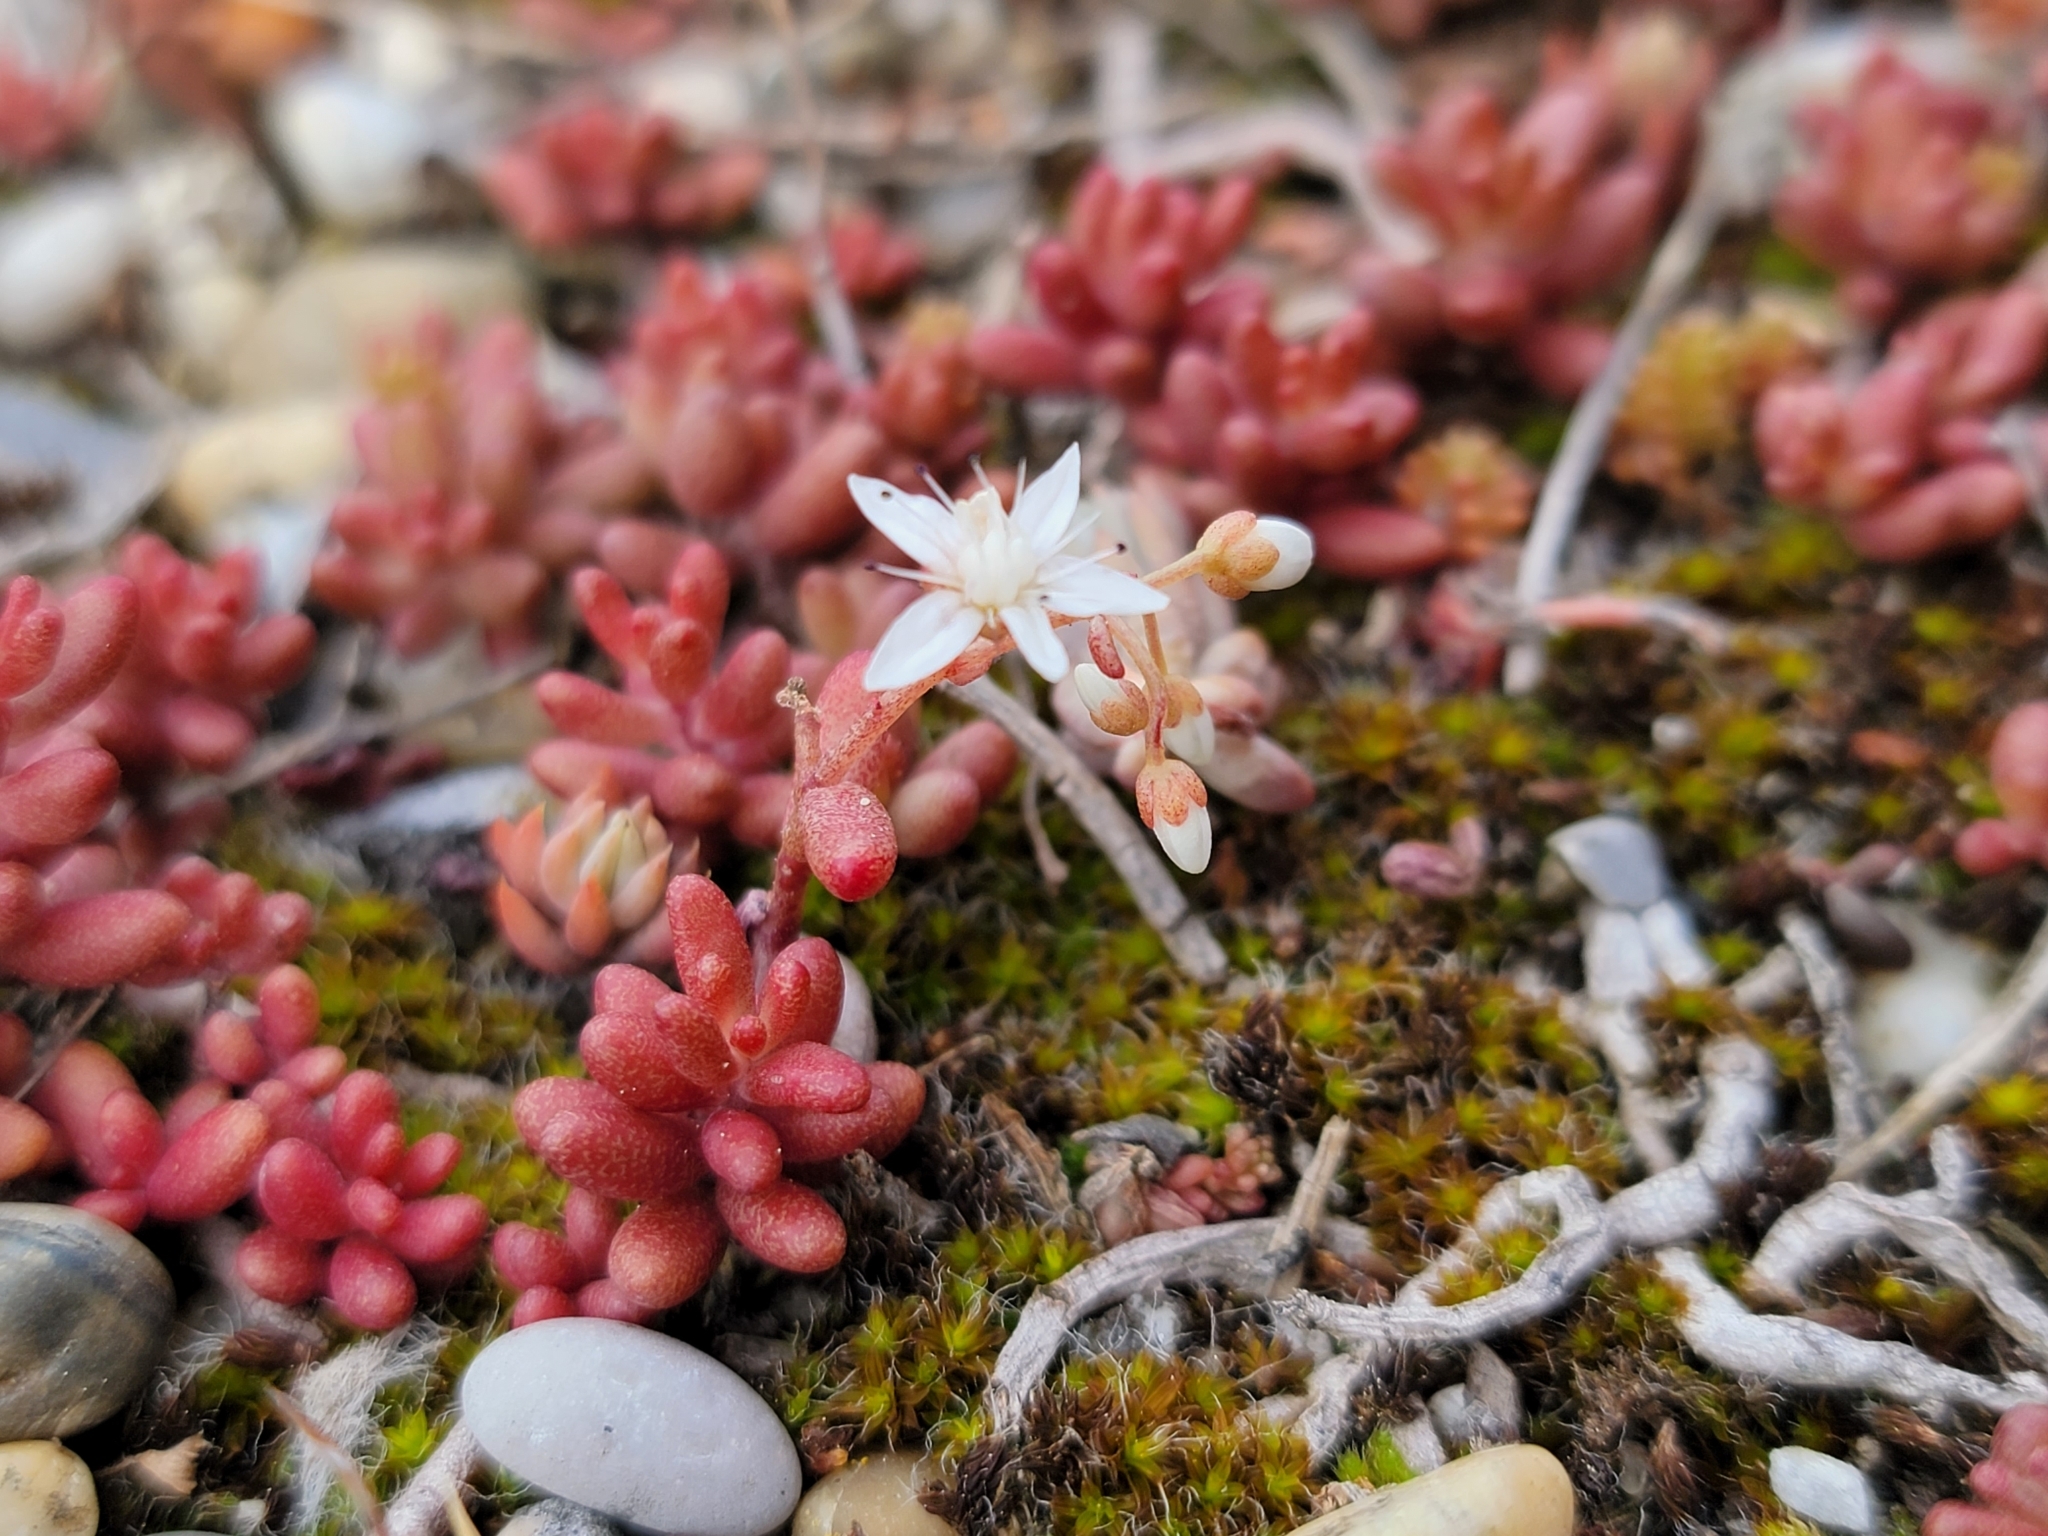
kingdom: Plantae
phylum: Tracheophyta
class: Magnoliopsida
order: Saxifragales
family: Crassulaceae
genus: Sedum
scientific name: Sedum album
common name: White stonecrop
